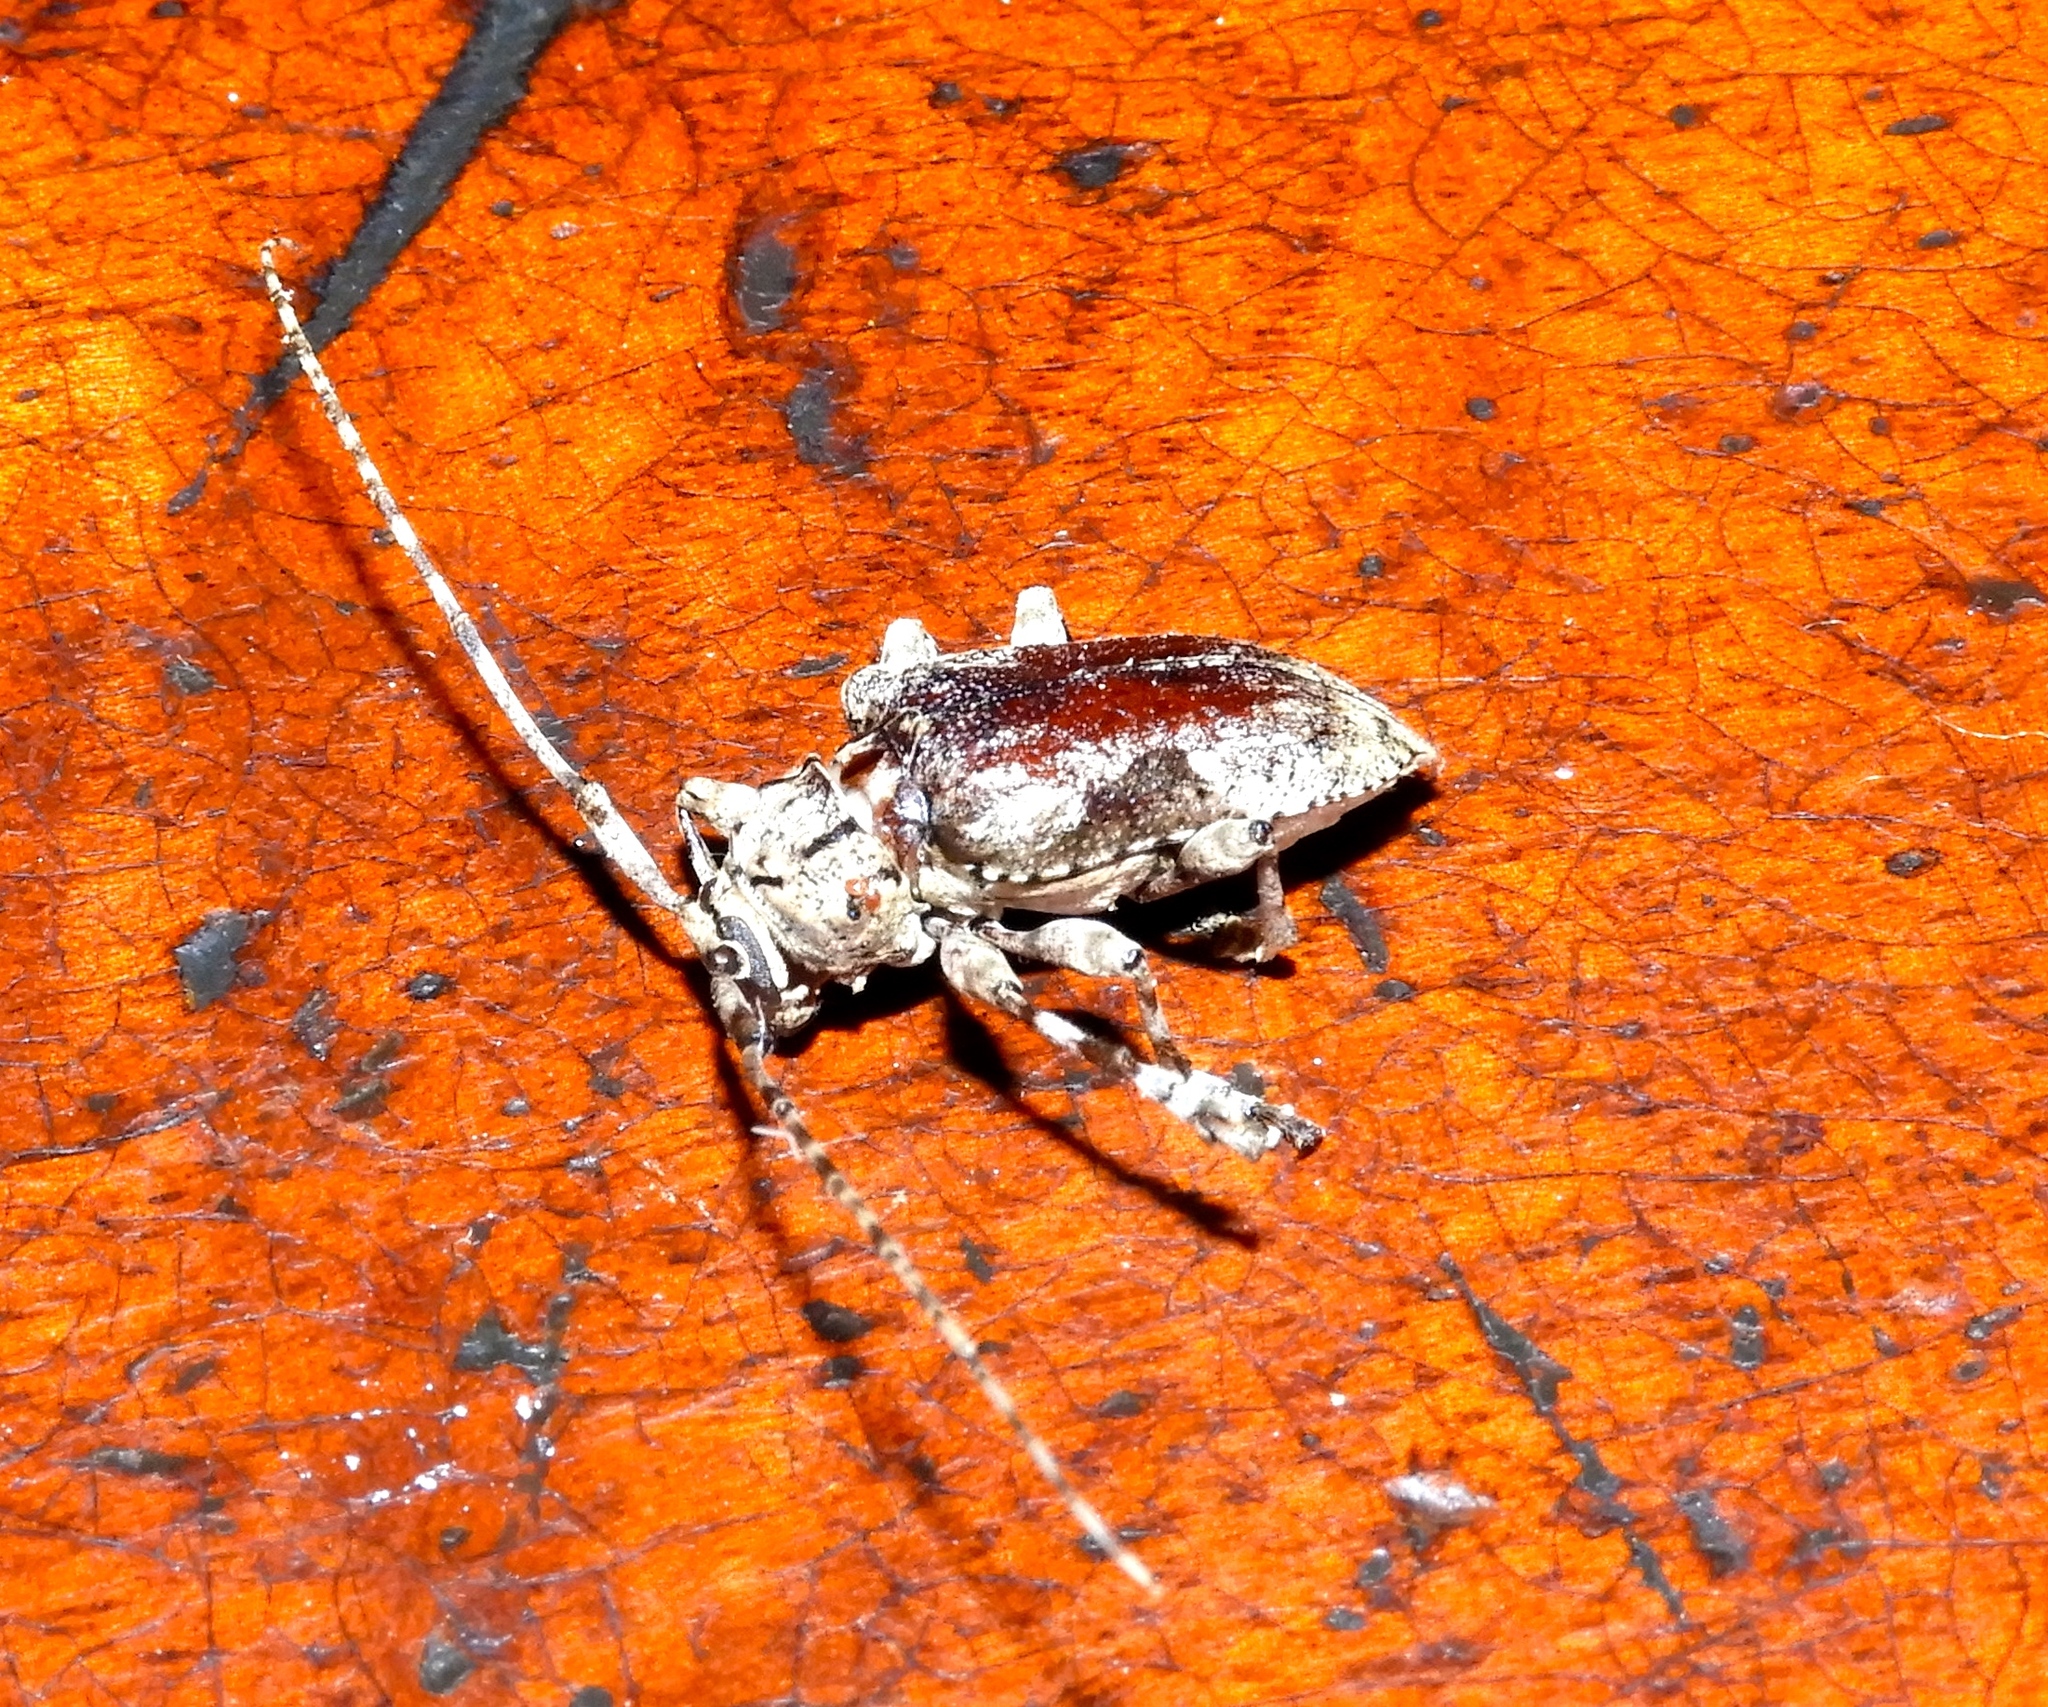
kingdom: Animalia
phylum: Arthropoda
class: Insecta
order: Coleoptera
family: Cerambycidae
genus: Sternidius
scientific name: Sternidius
